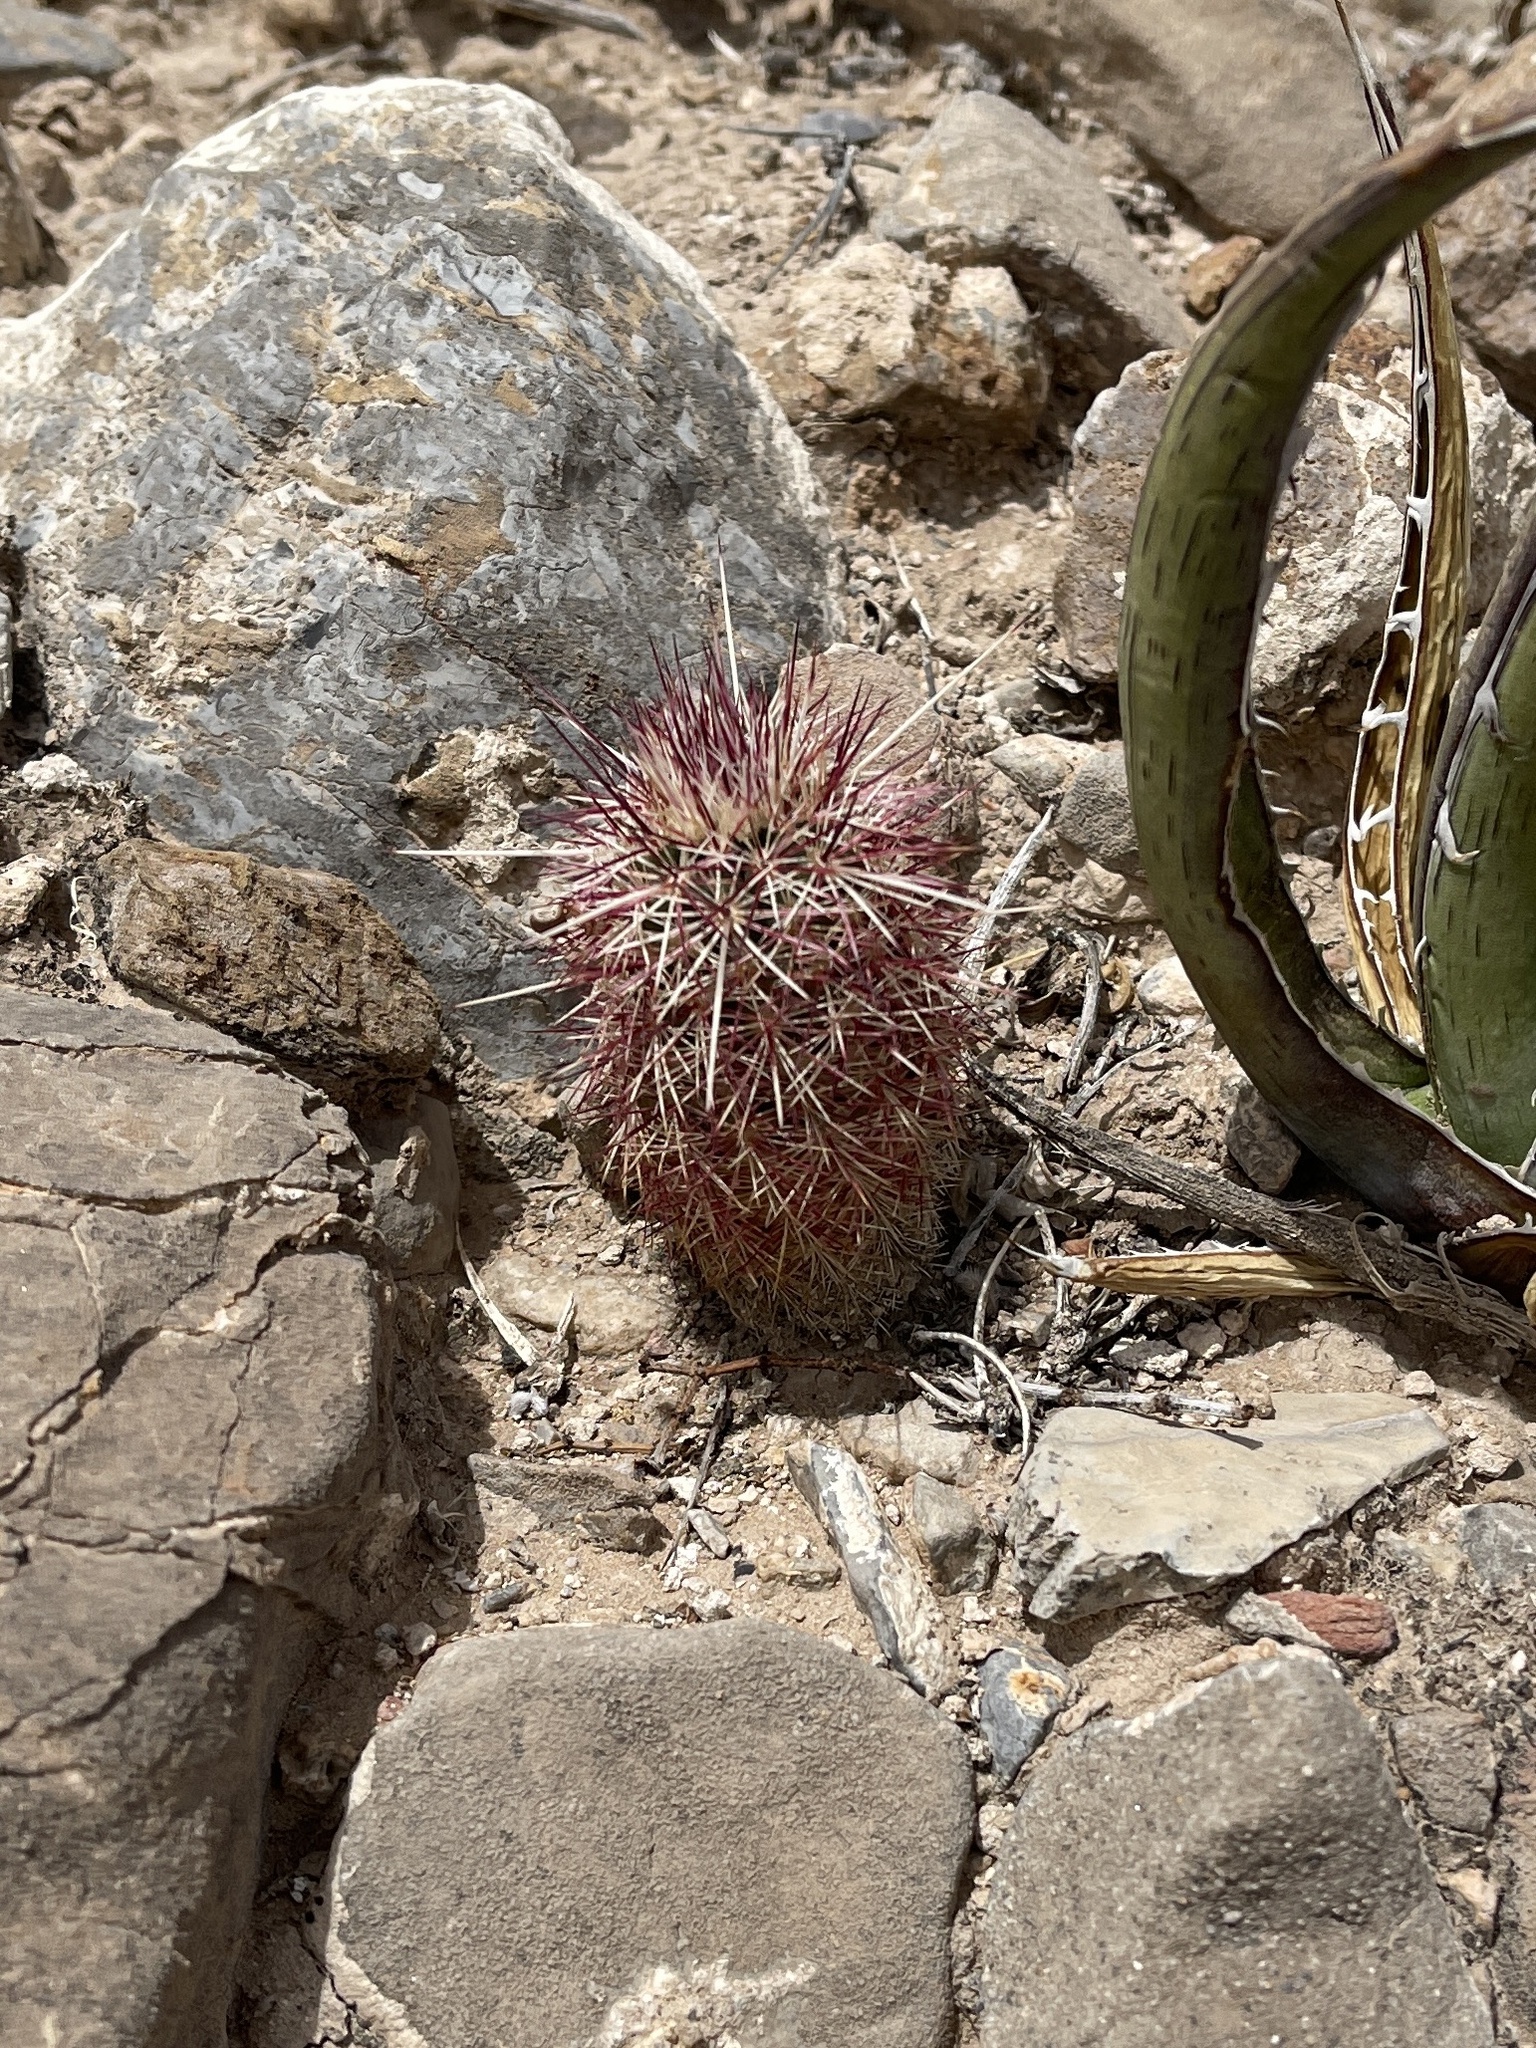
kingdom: Plantae
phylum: Tracheophyta
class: Magnoliopsida
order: Caryophyllales
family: Cactaceae
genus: Echinocereus
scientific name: Echinocereus viridiflorus
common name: Nylon hedgehog cactus
